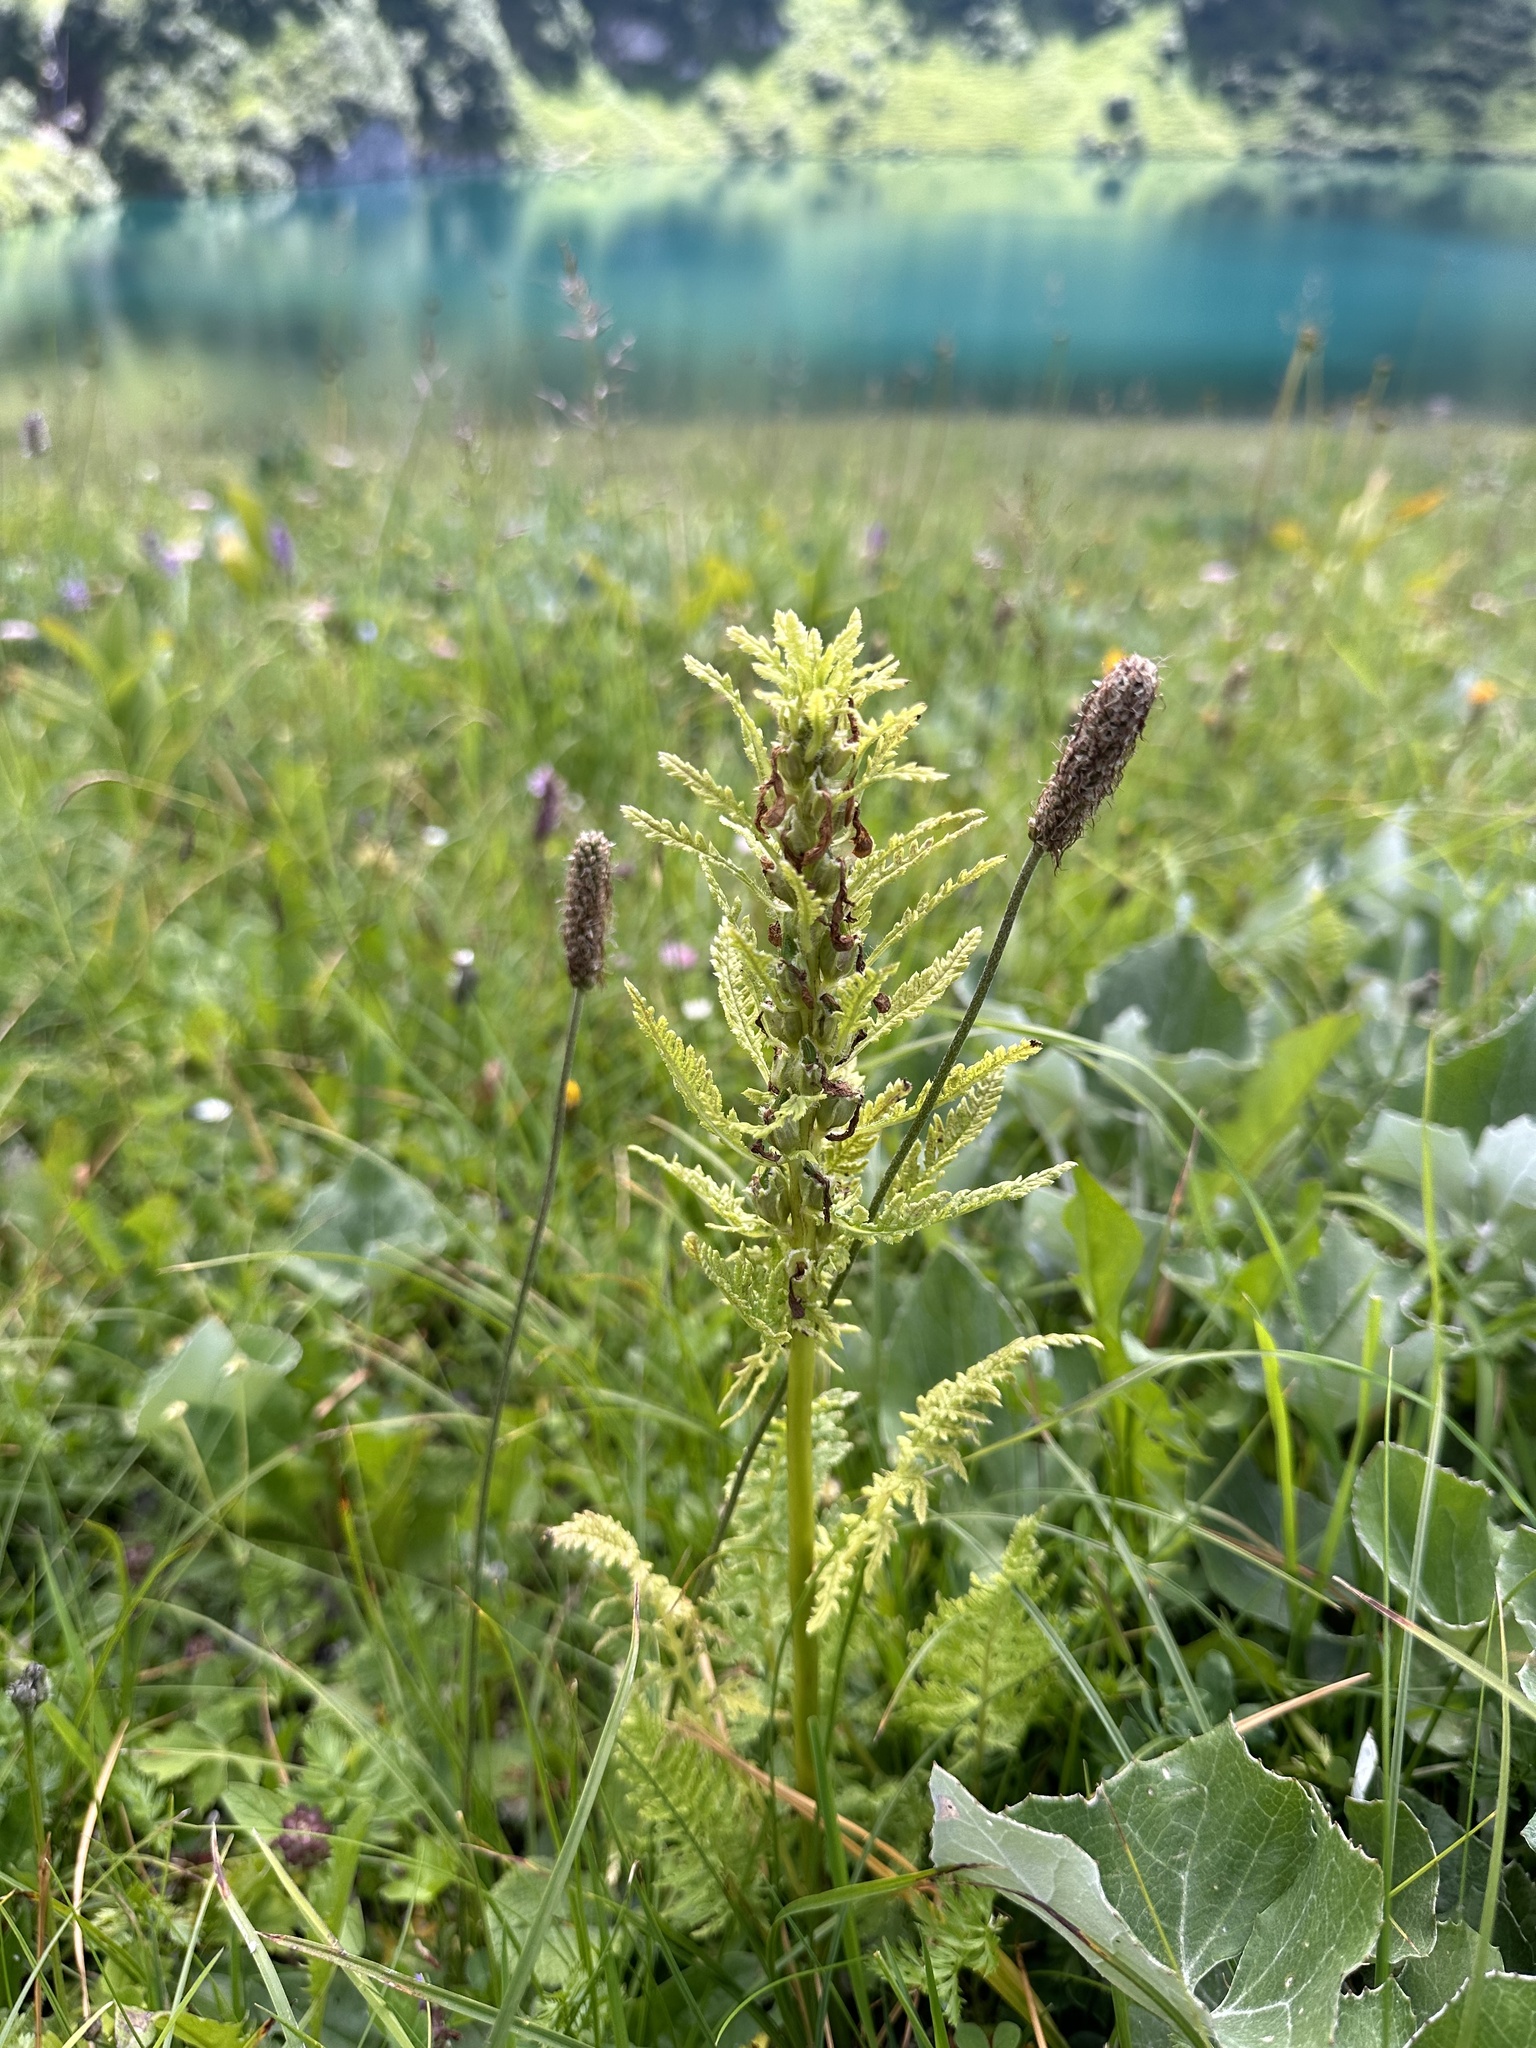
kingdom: Plantae
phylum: Tracheophyta
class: Magnoliopsida
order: Lamiales
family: Orobanchaceae
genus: Pedicularis
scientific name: Pedicularis foliosa
